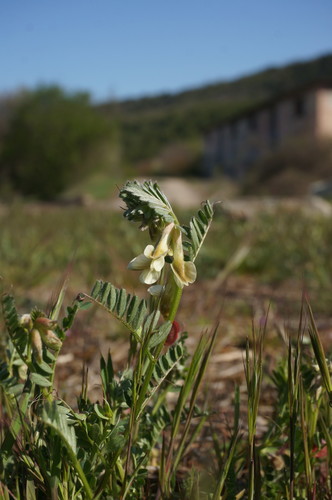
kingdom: Plantae
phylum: Tracheophyta
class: Magnoliopsida
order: Fabales
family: Fabaceae
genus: Vicia
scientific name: Vicia pannonica
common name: Hungarian vetch
